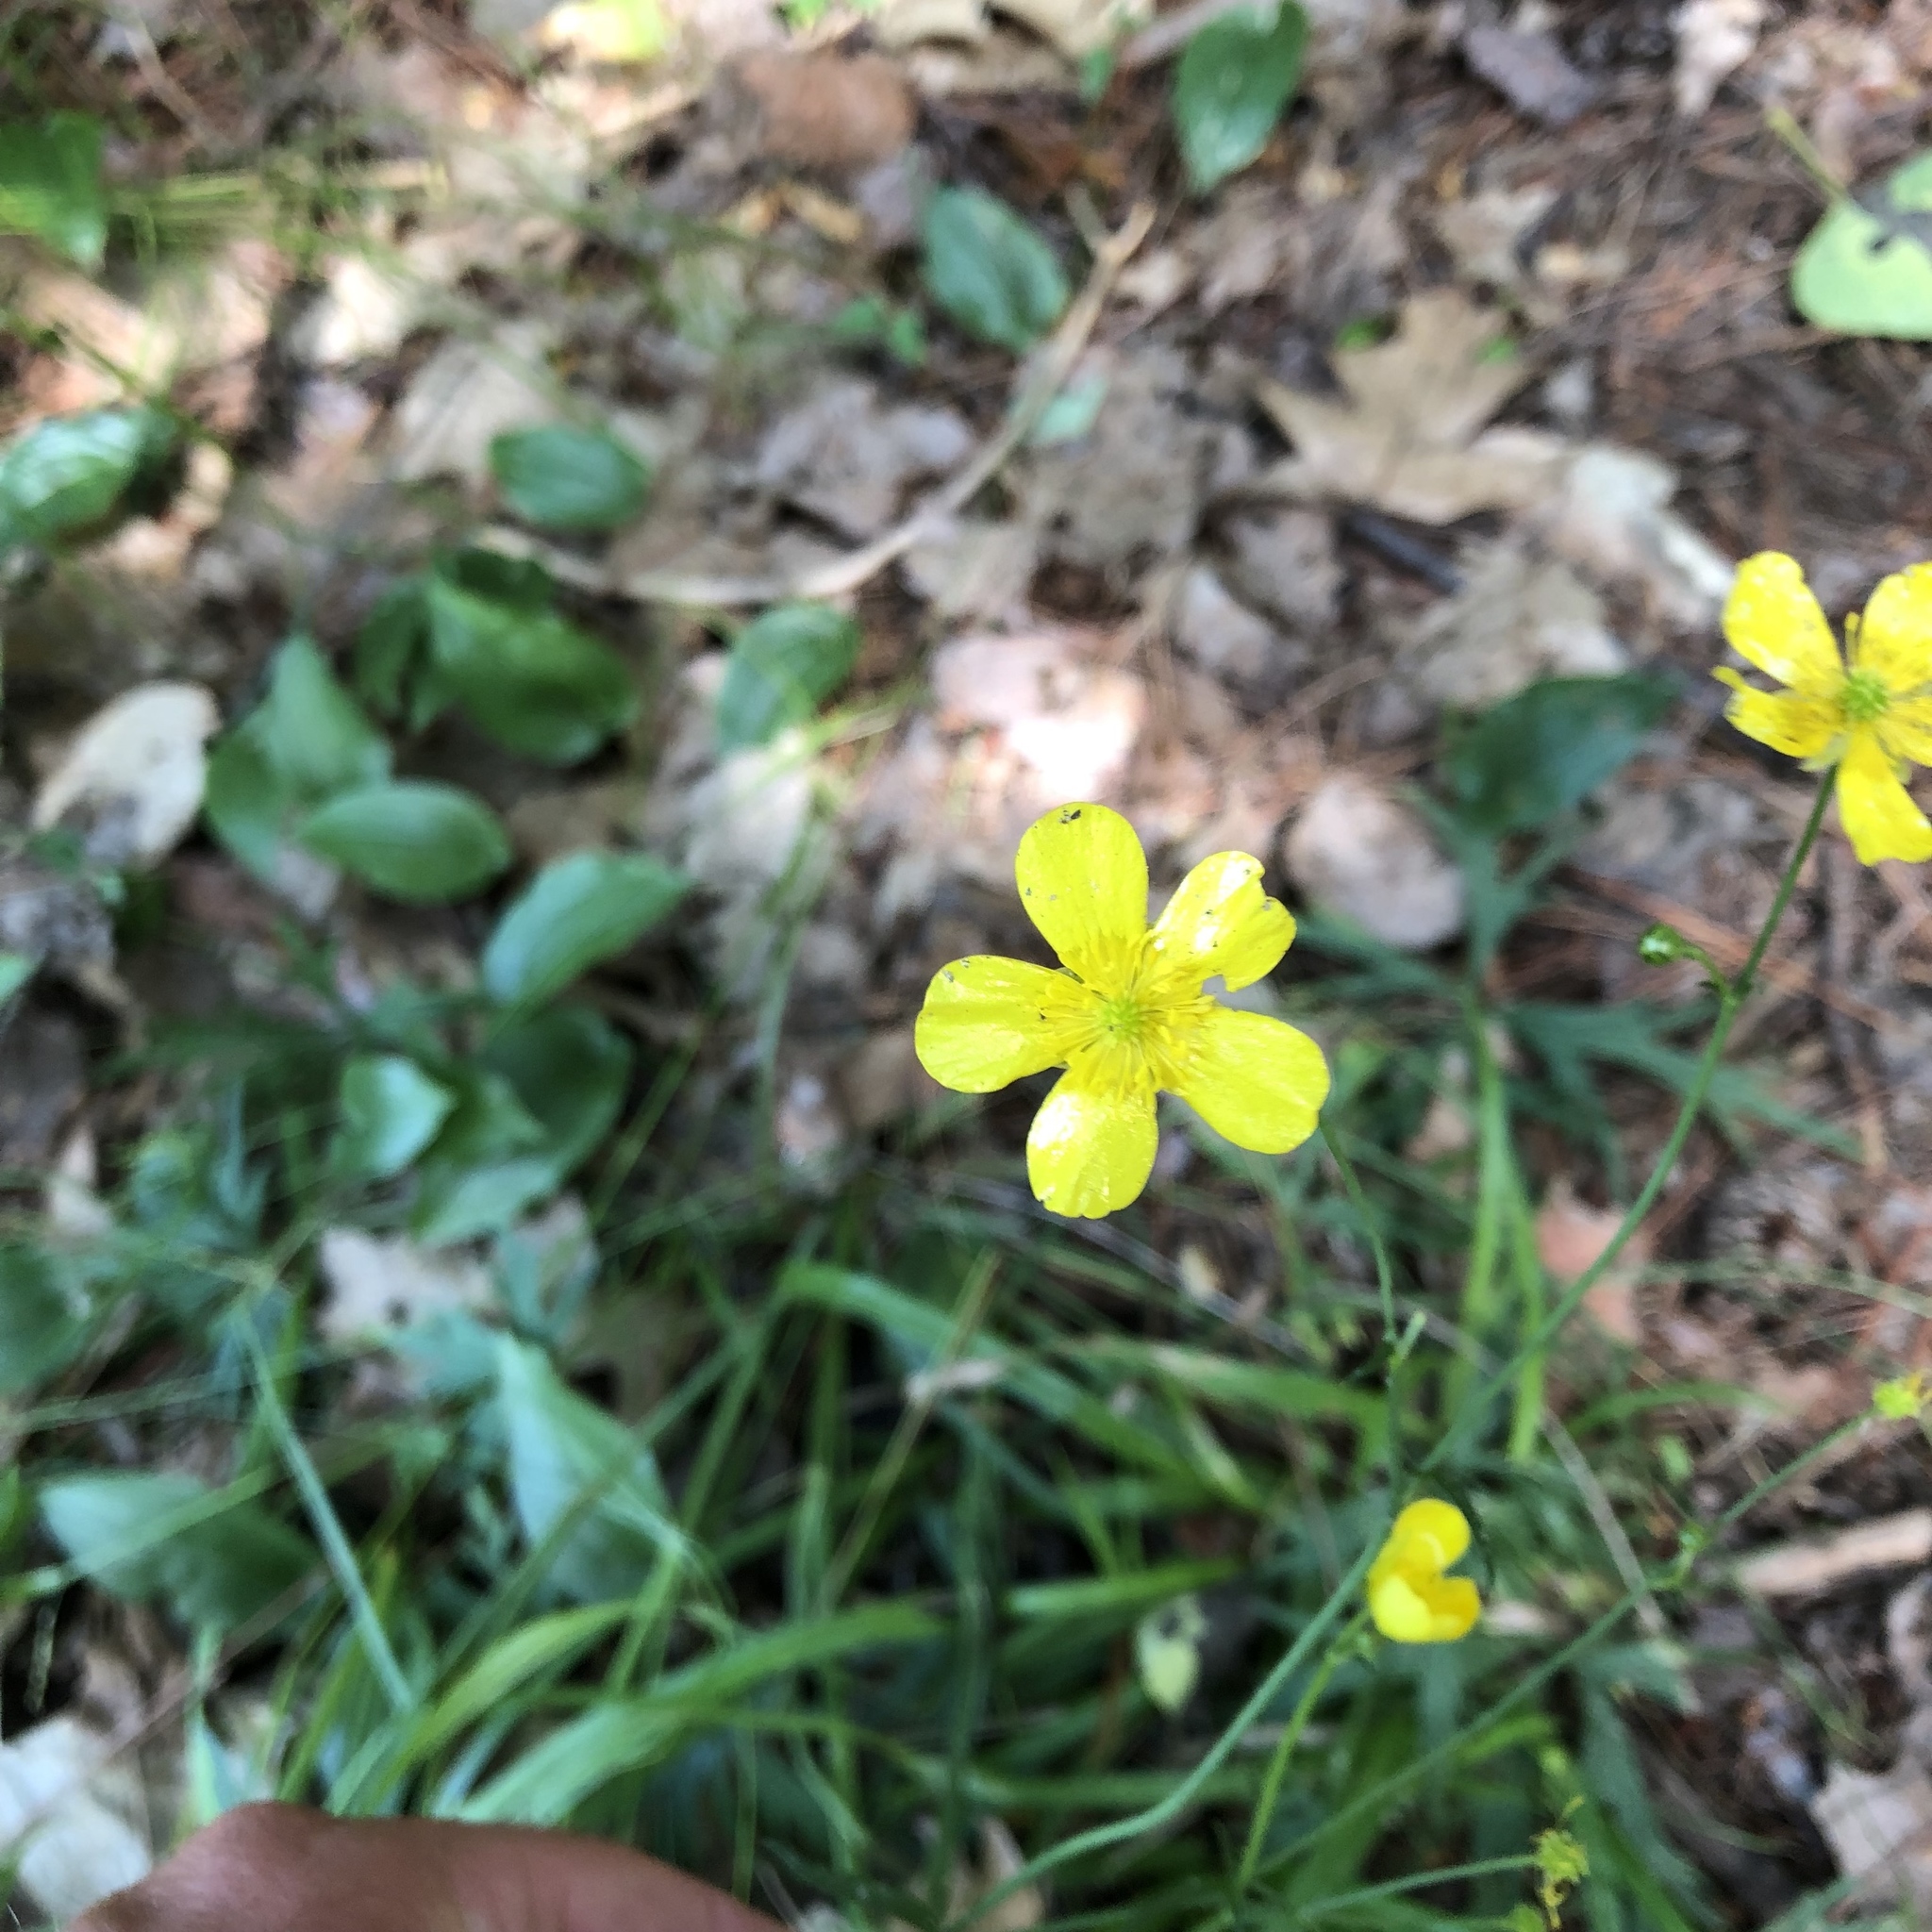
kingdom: Plantae
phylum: Tracheophyta
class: Magnoliopsida
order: Ranunculales
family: Ranunculaceae
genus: Ranunculus
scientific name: Ranunculus acris
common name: Meadow buttercup
